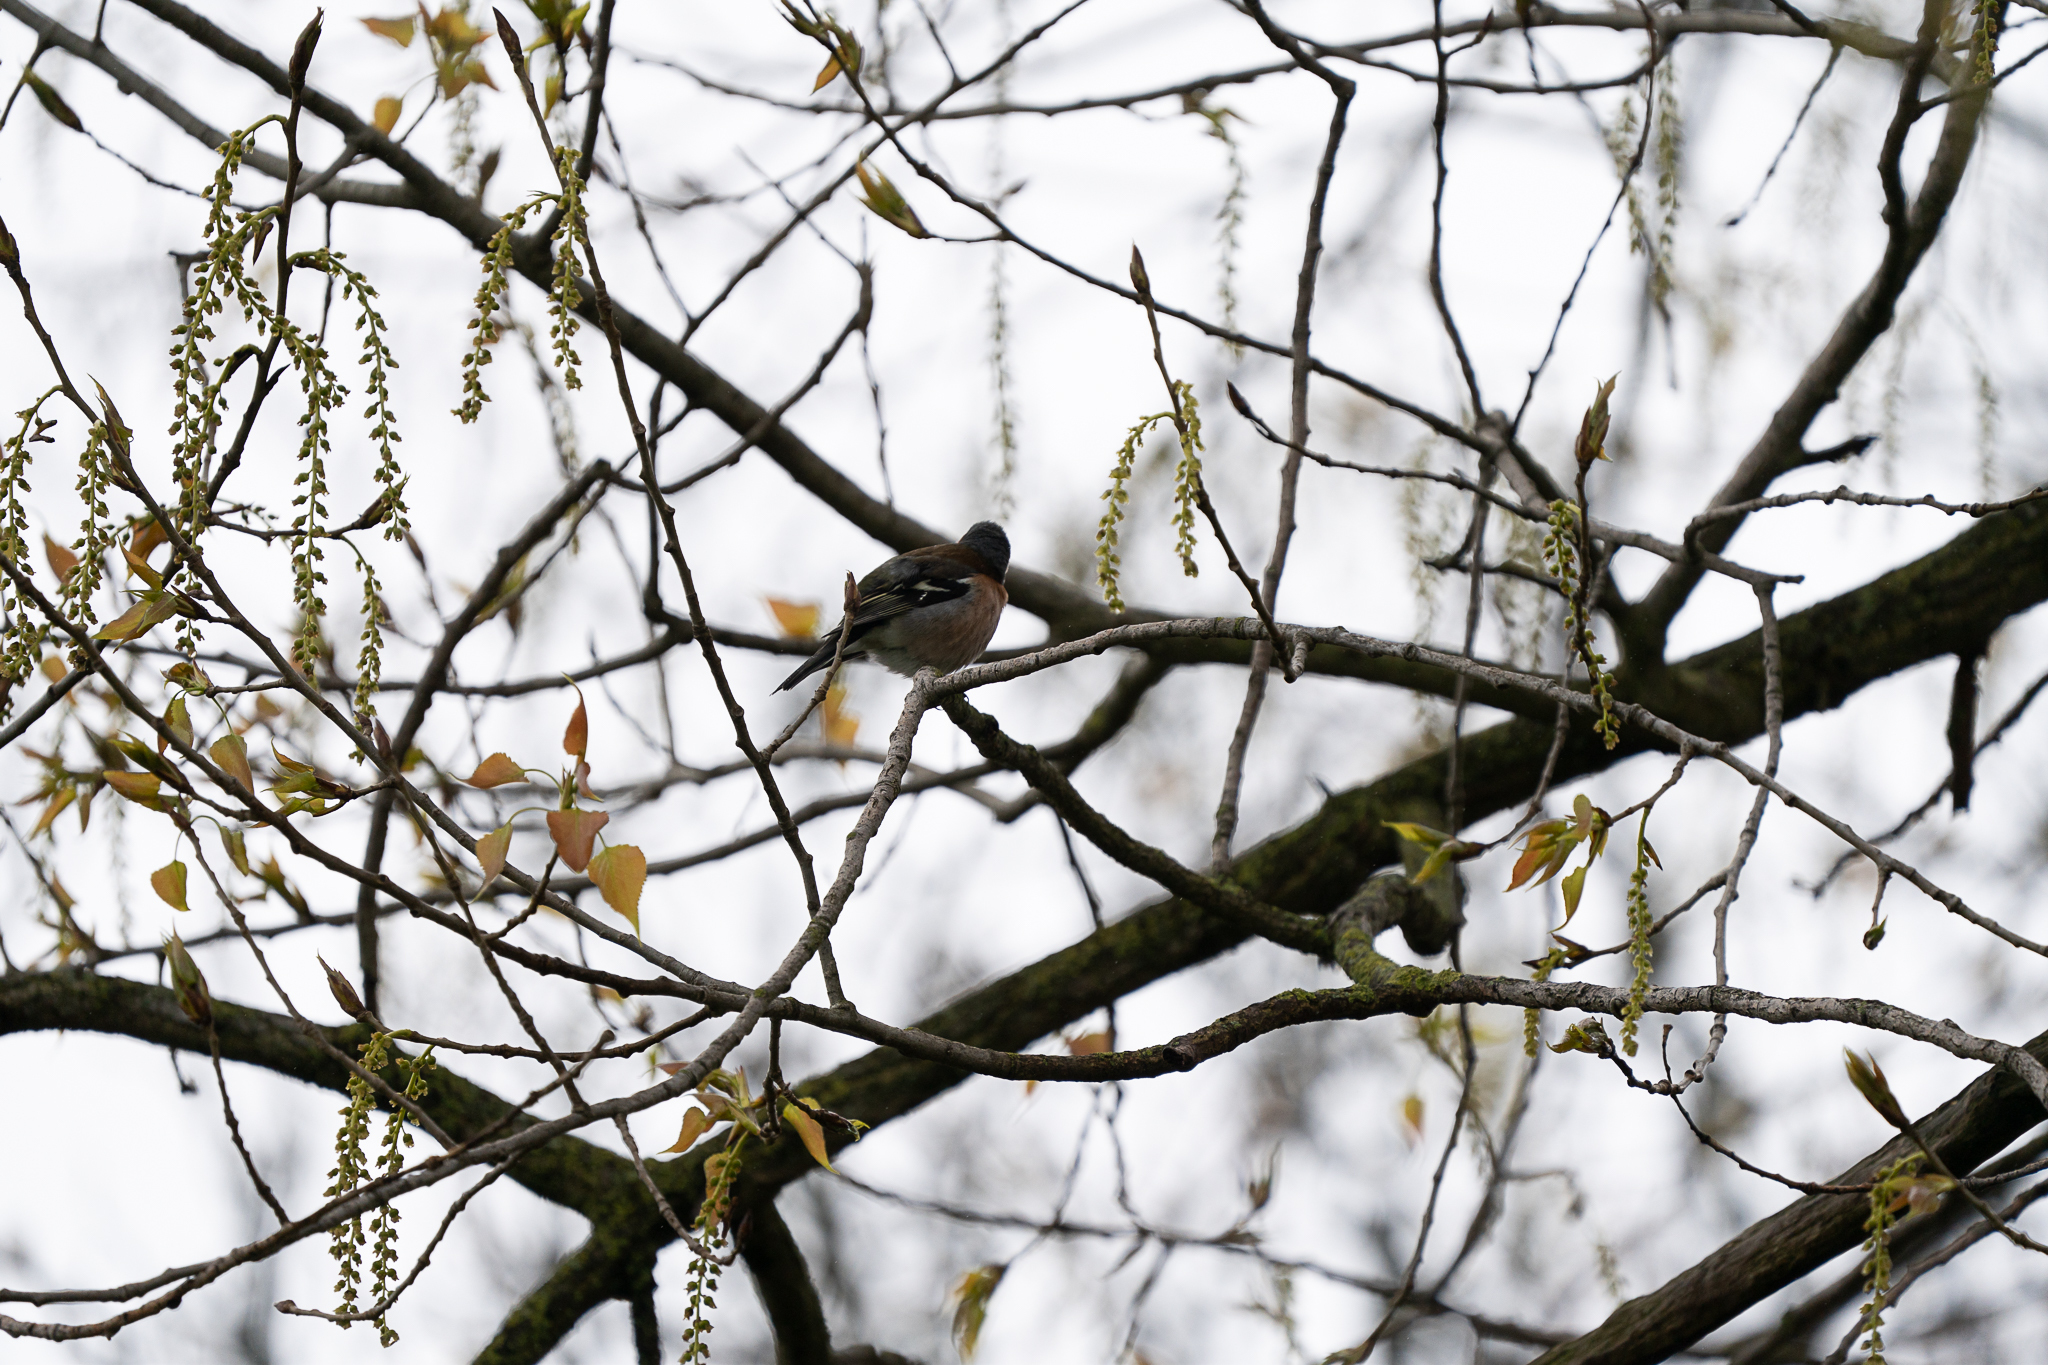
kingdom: Animalia
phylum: Chordata
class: Aves
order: Passeriformes
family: Fringillidae
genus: Fringilla
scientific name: Fringilla coelebs
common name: Common chaffinch
